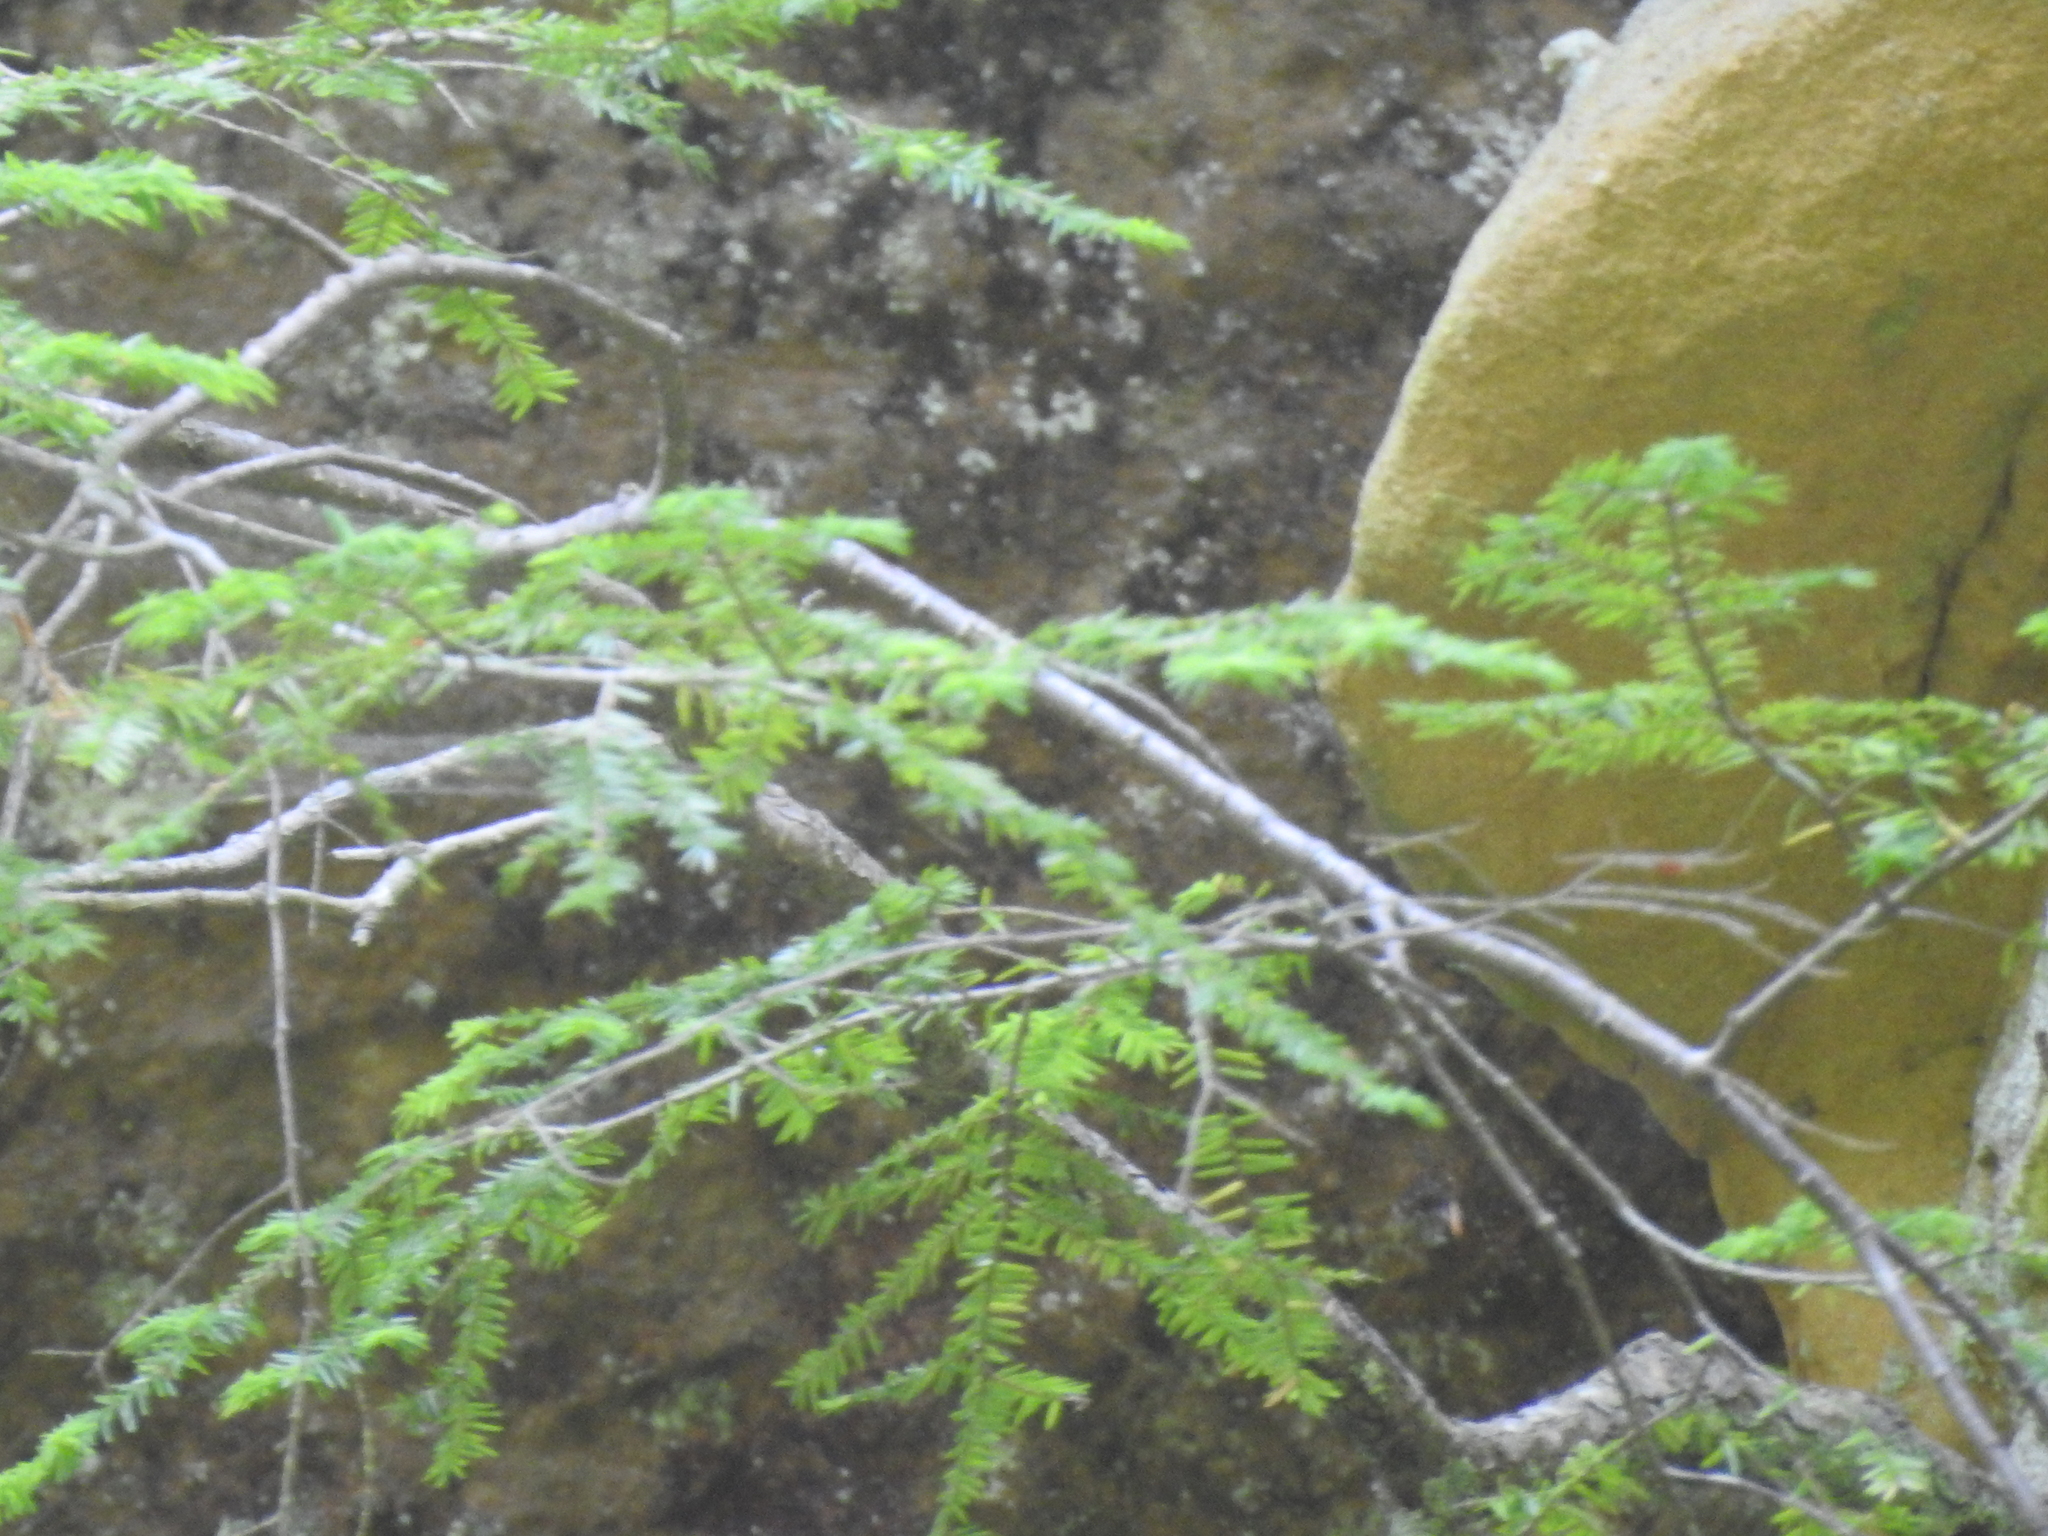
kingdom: Plantae
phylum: Tracheophyta
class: Pinopsida
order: Pinales
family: Taxaceae
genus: Taxus
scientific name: Taxus canadensis
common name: American yew
